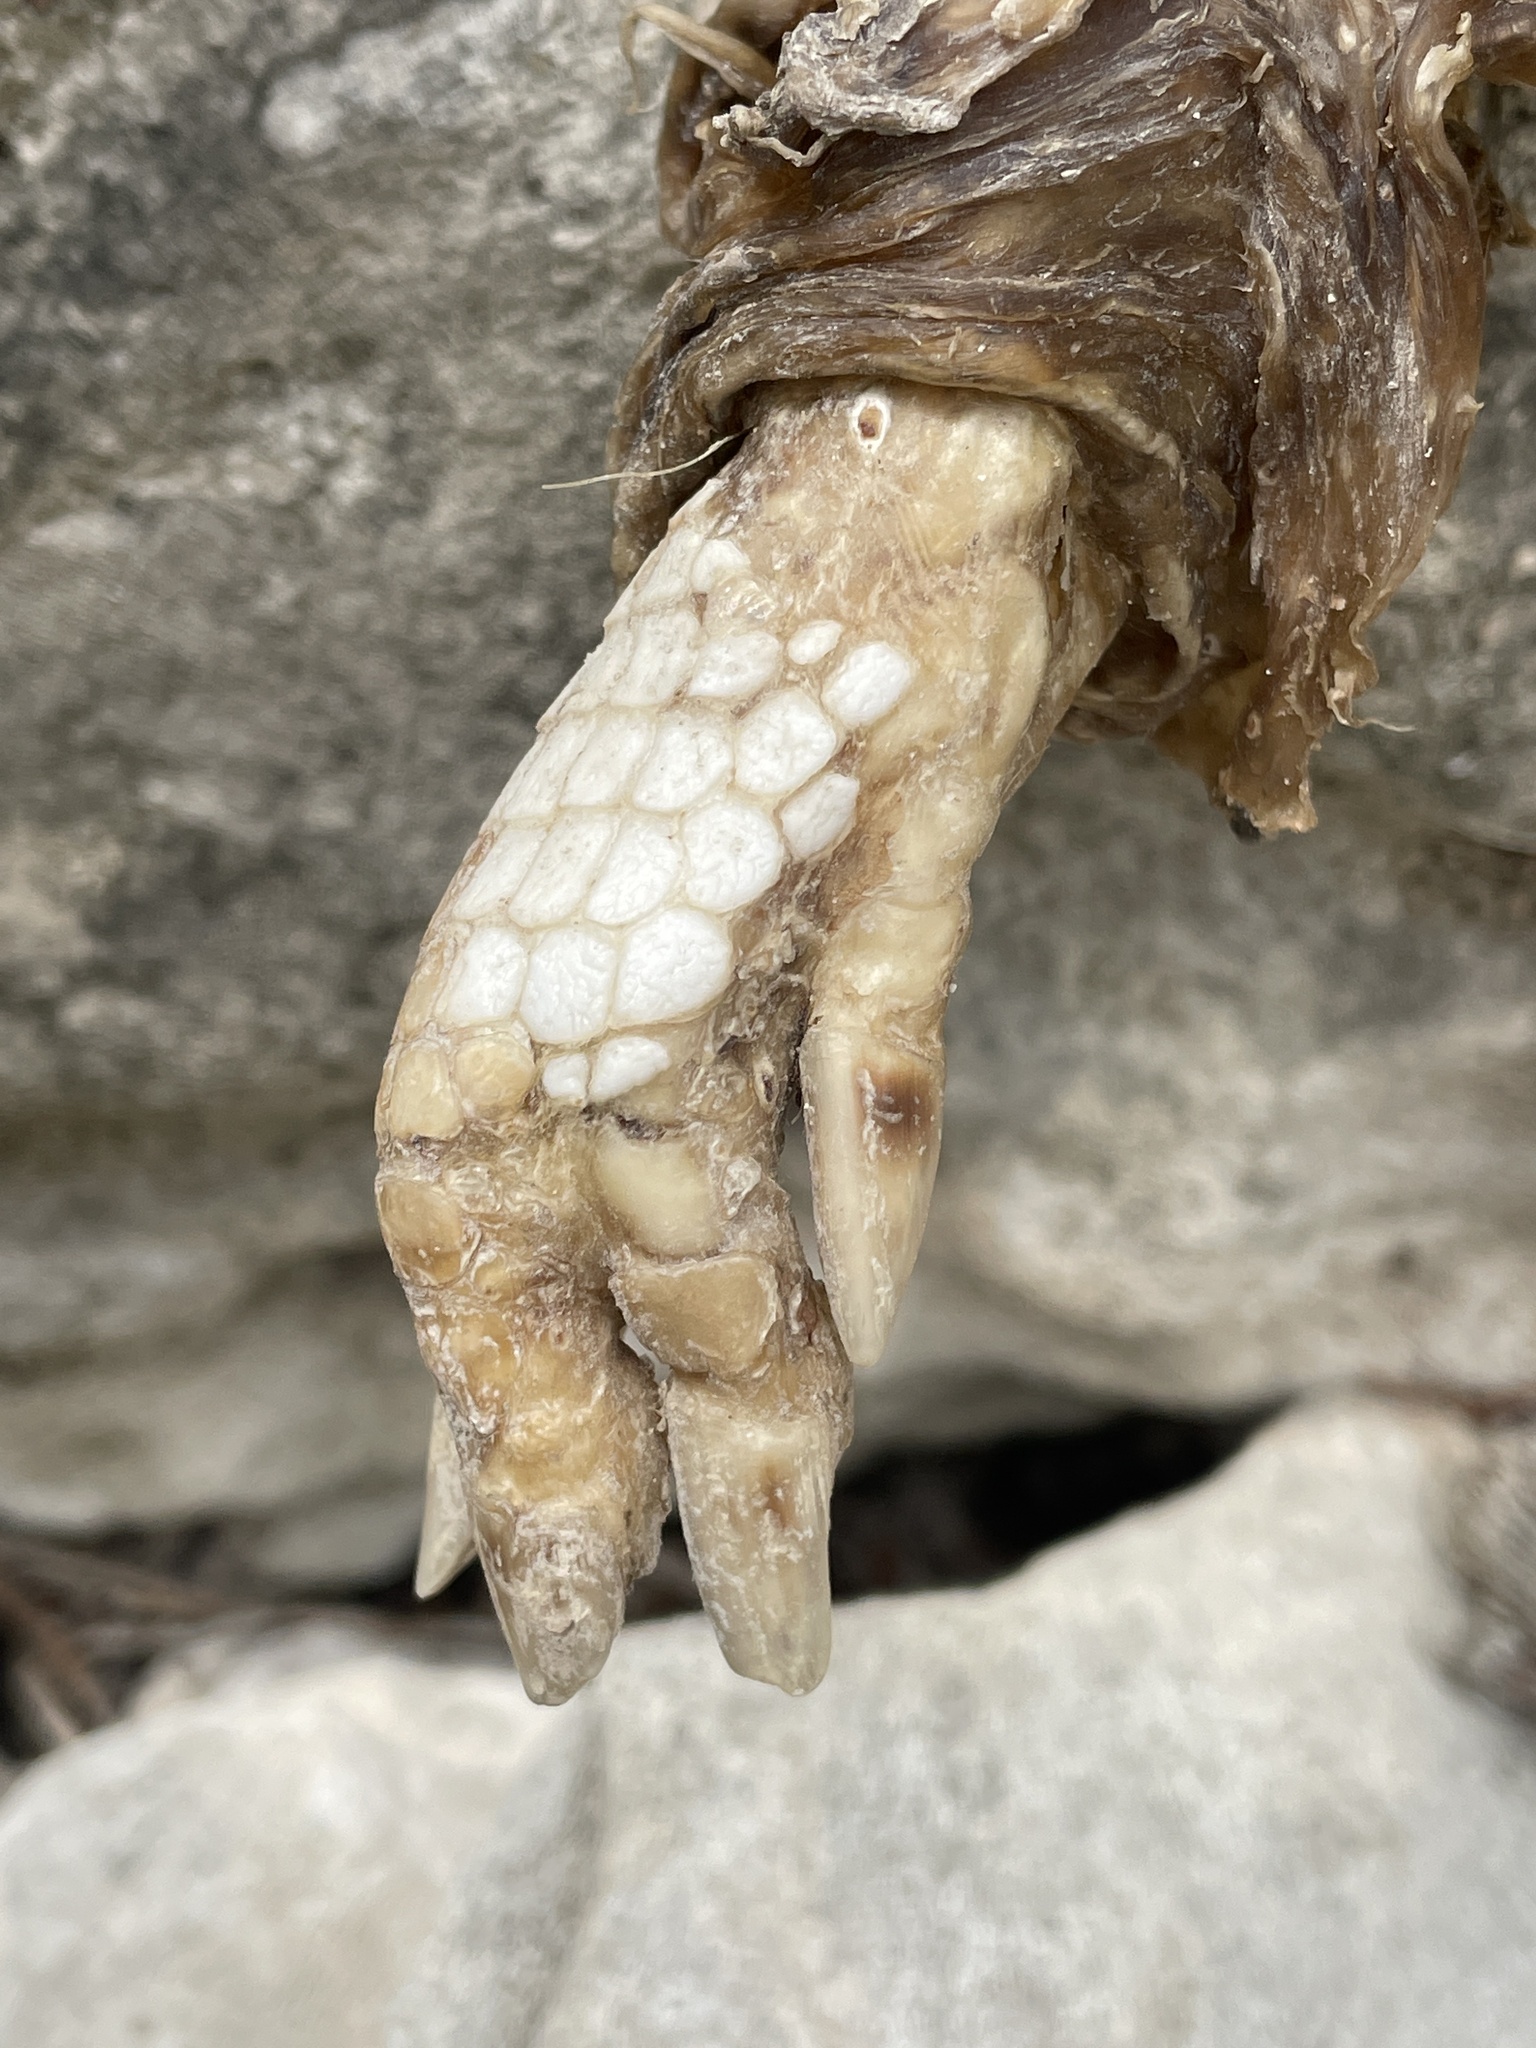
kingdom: Animalia
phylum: Chordata
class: Mammalia
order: Cingulata
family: Dasypodidae
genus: Dasypus
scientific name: Dasypus novemcinctus
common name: Nine-banded armadillo
